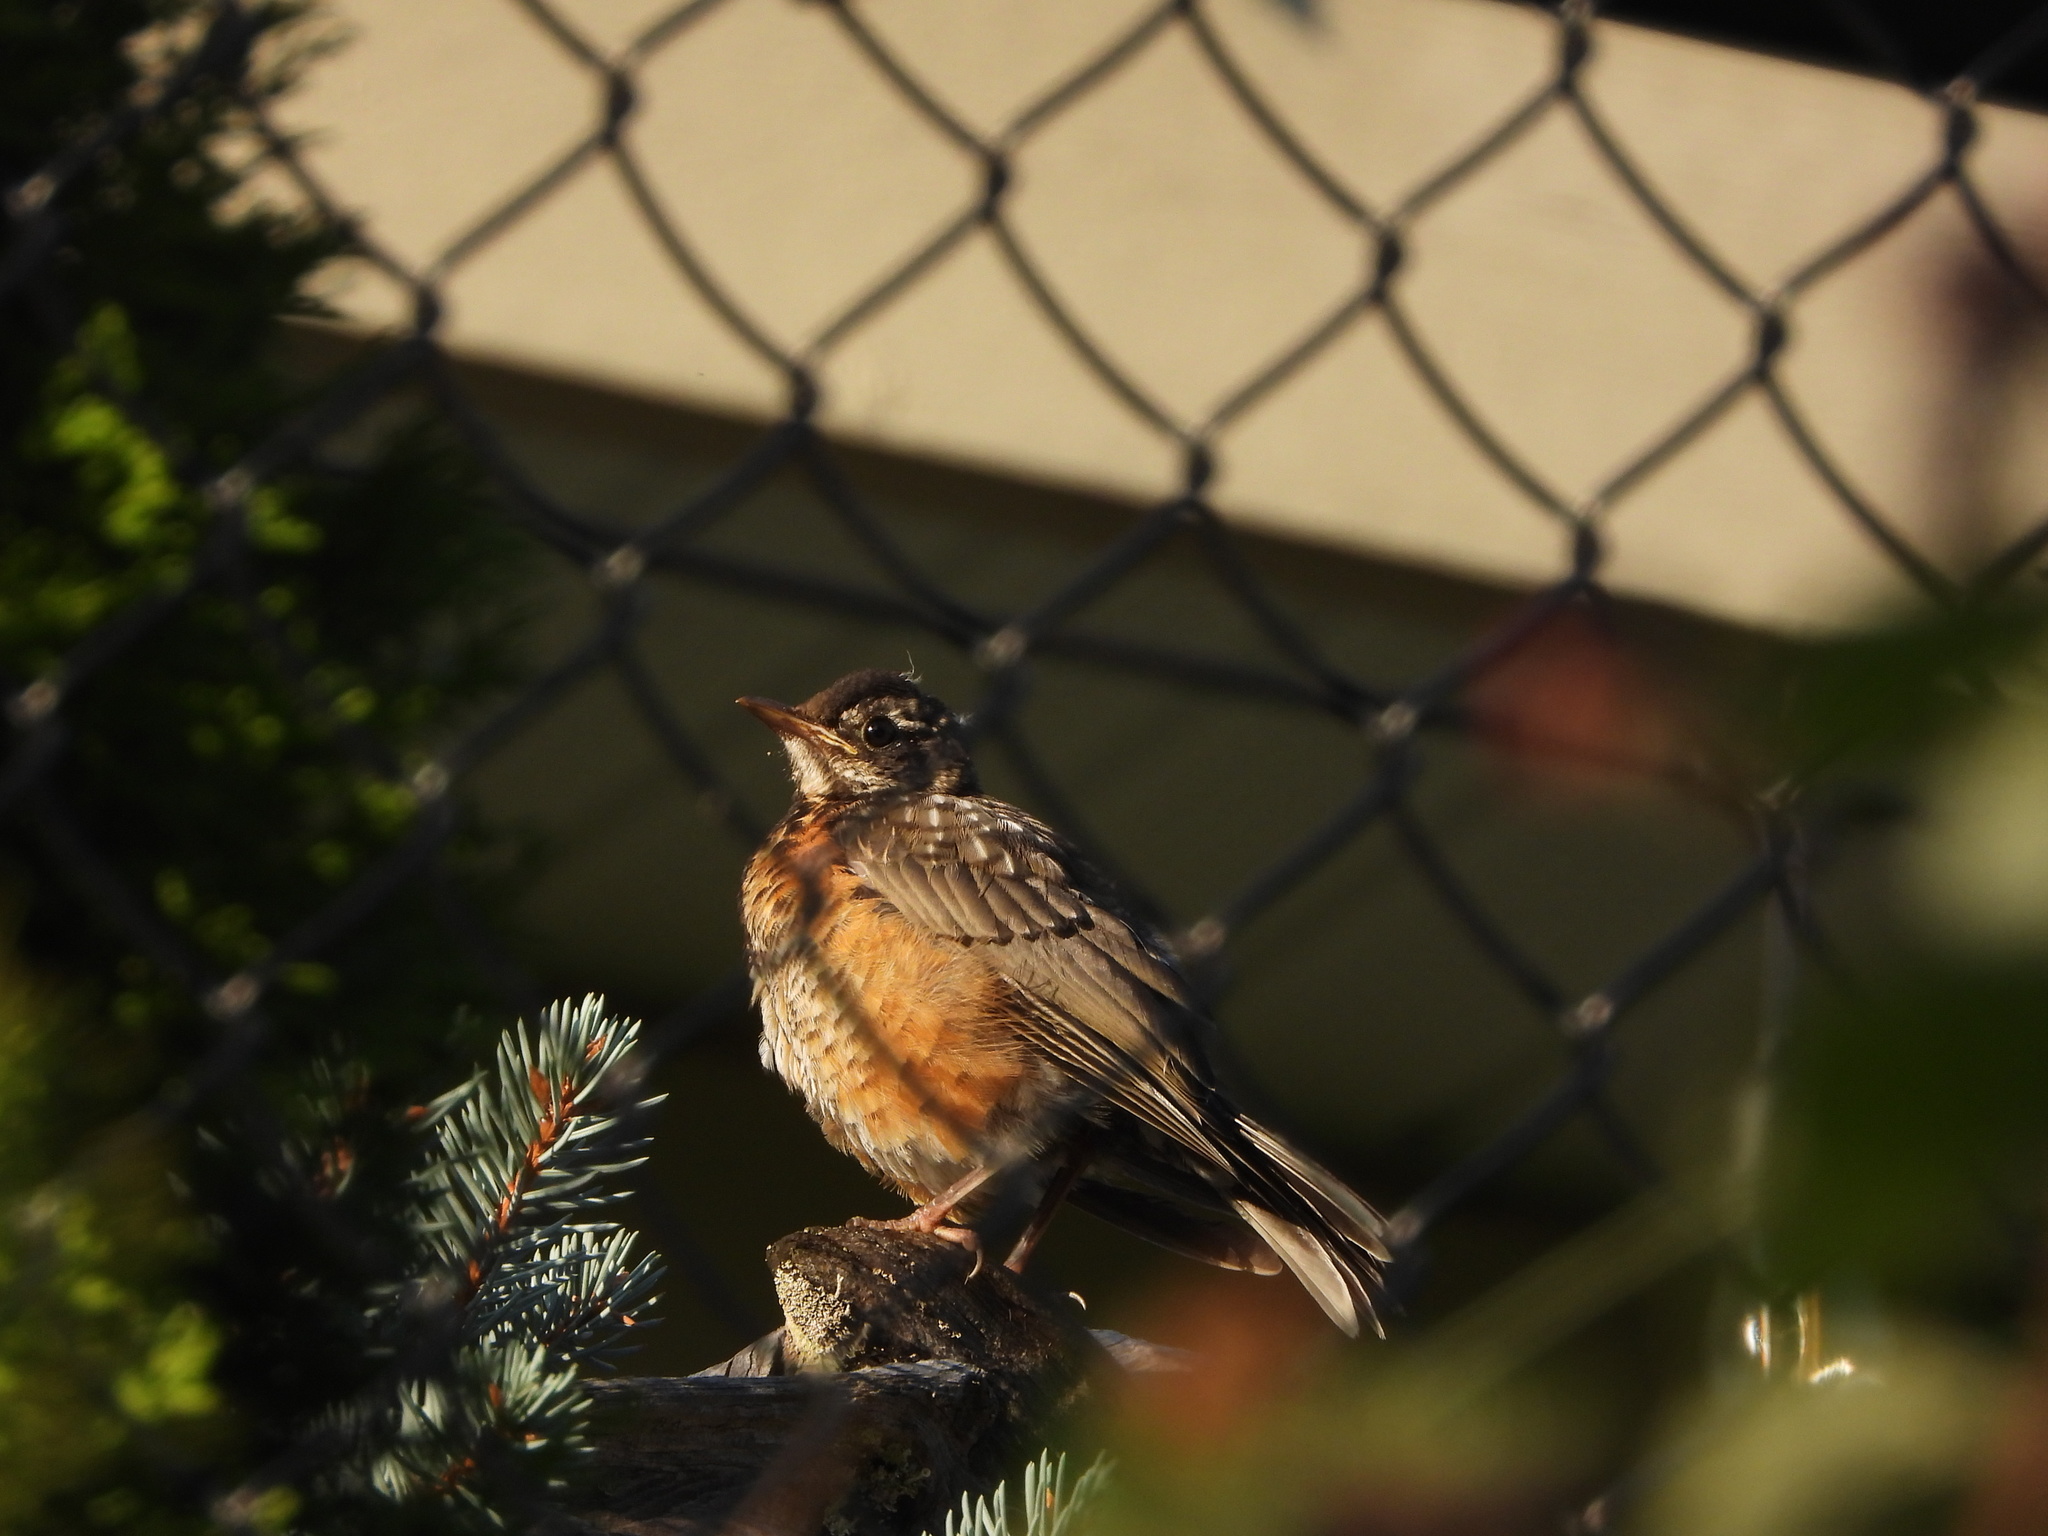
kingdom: Animalia
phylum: Chordata
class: Aves
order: Passeriformes
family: Turdidae
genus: Turdus
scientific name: Turdus migratorius
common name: American robin
